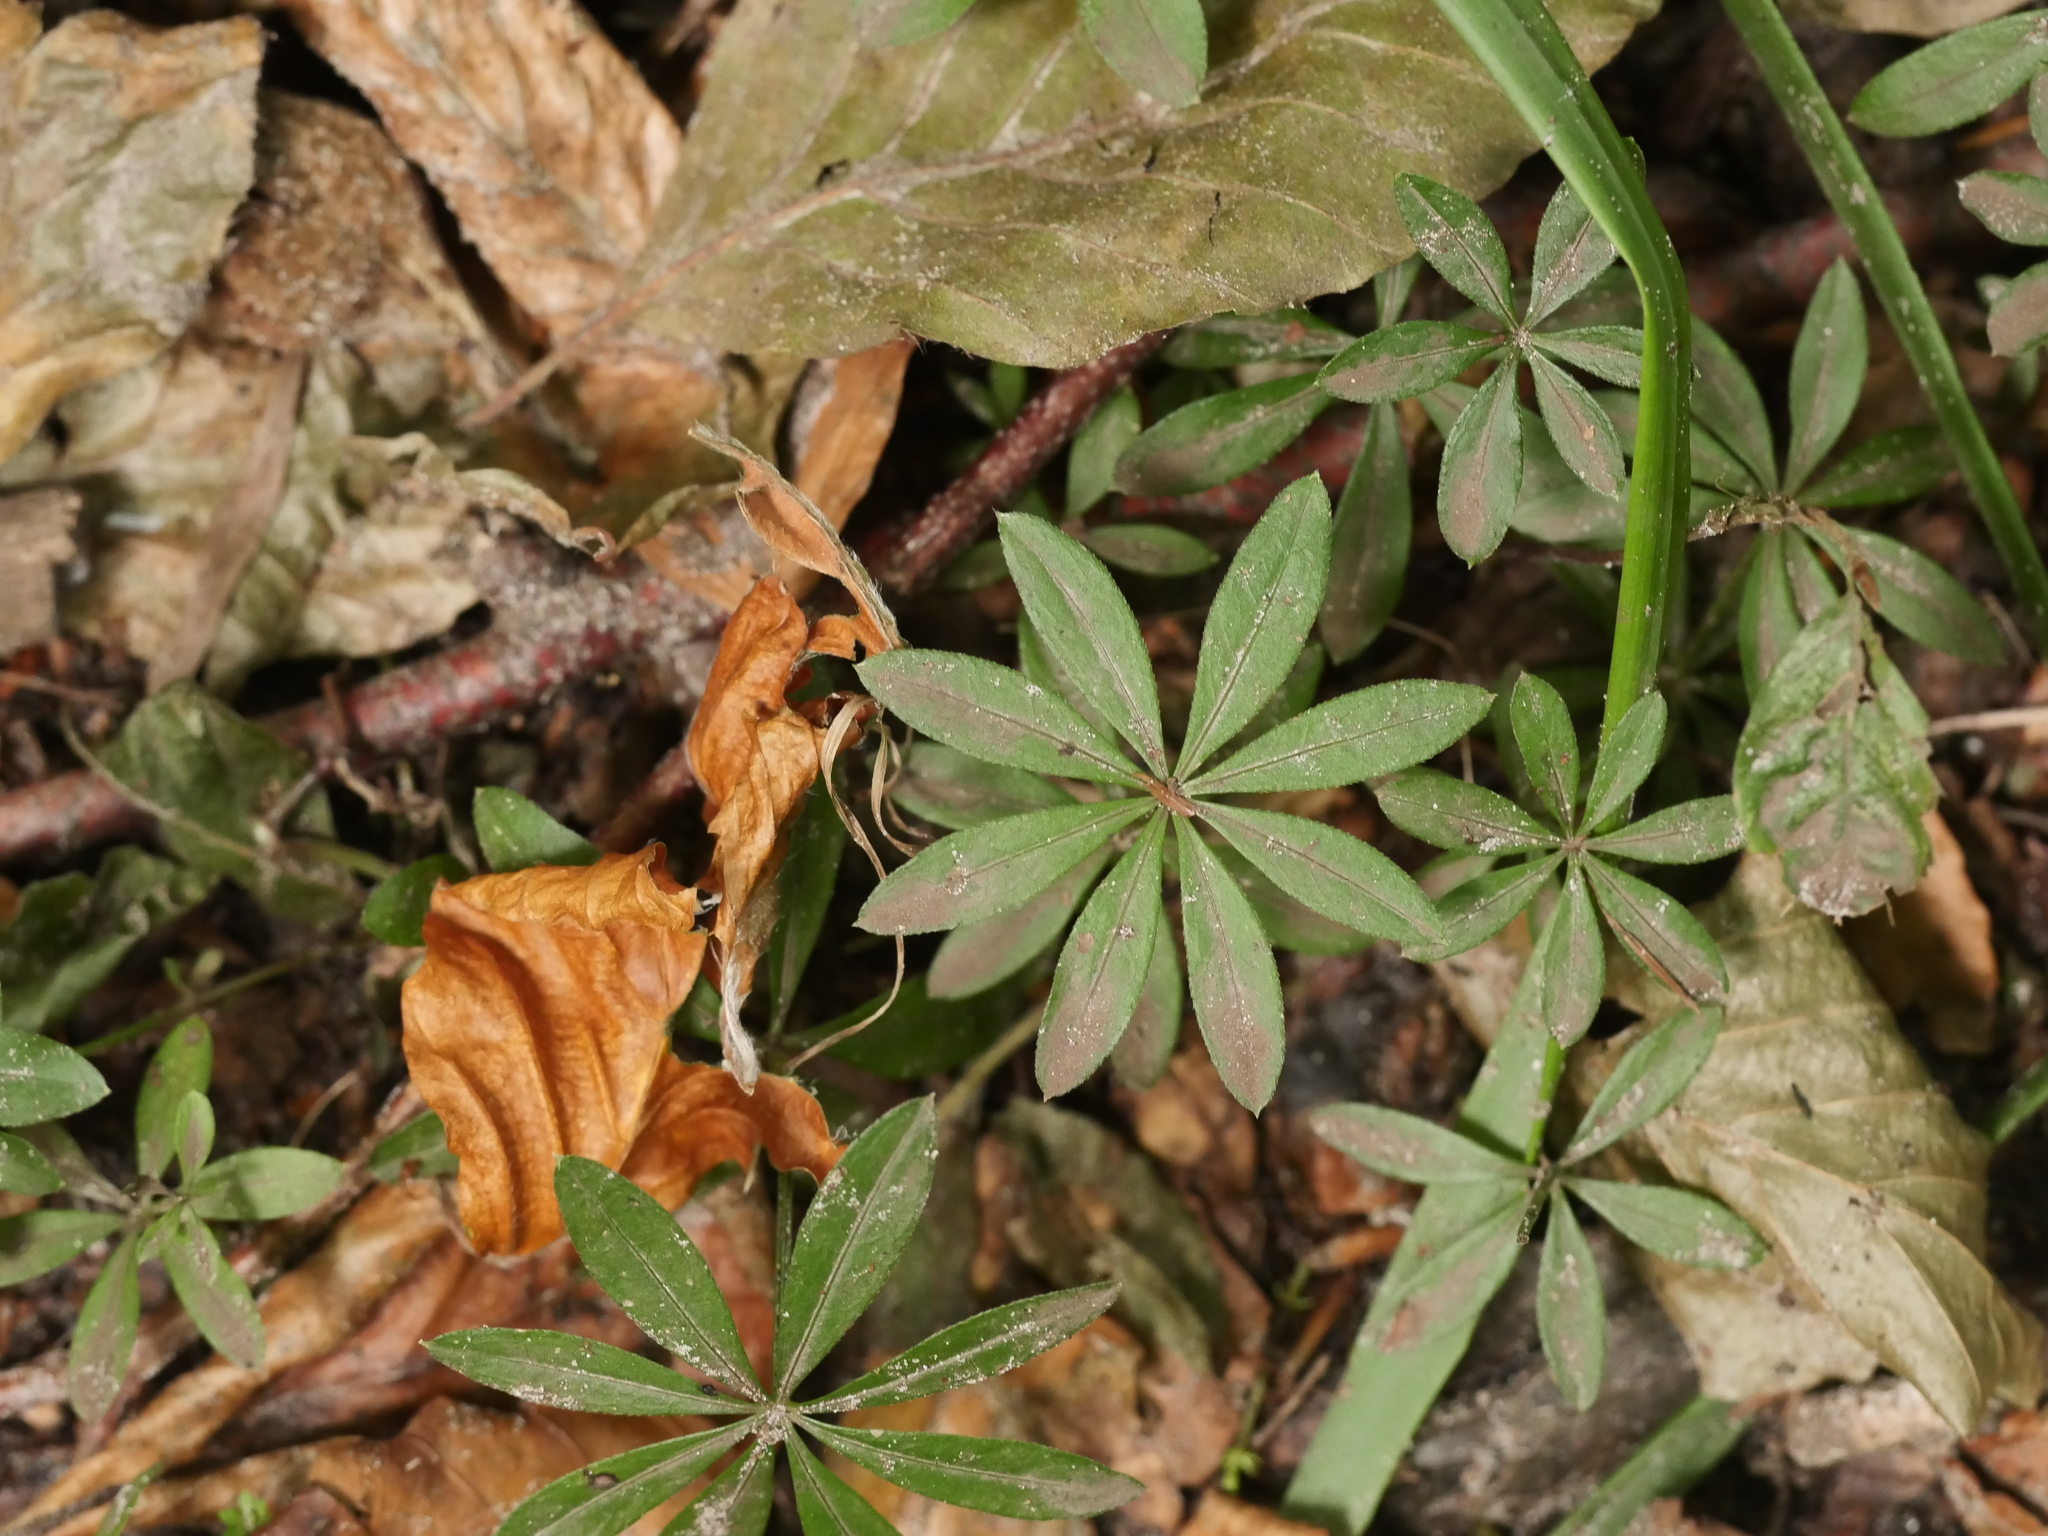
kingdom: Plantae
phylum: Tracheophyta
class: Magnoliopsida
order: Gentianales
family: Rubiaceae
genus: Galium
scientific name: Galium odoratum
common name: Sweet woodruff
